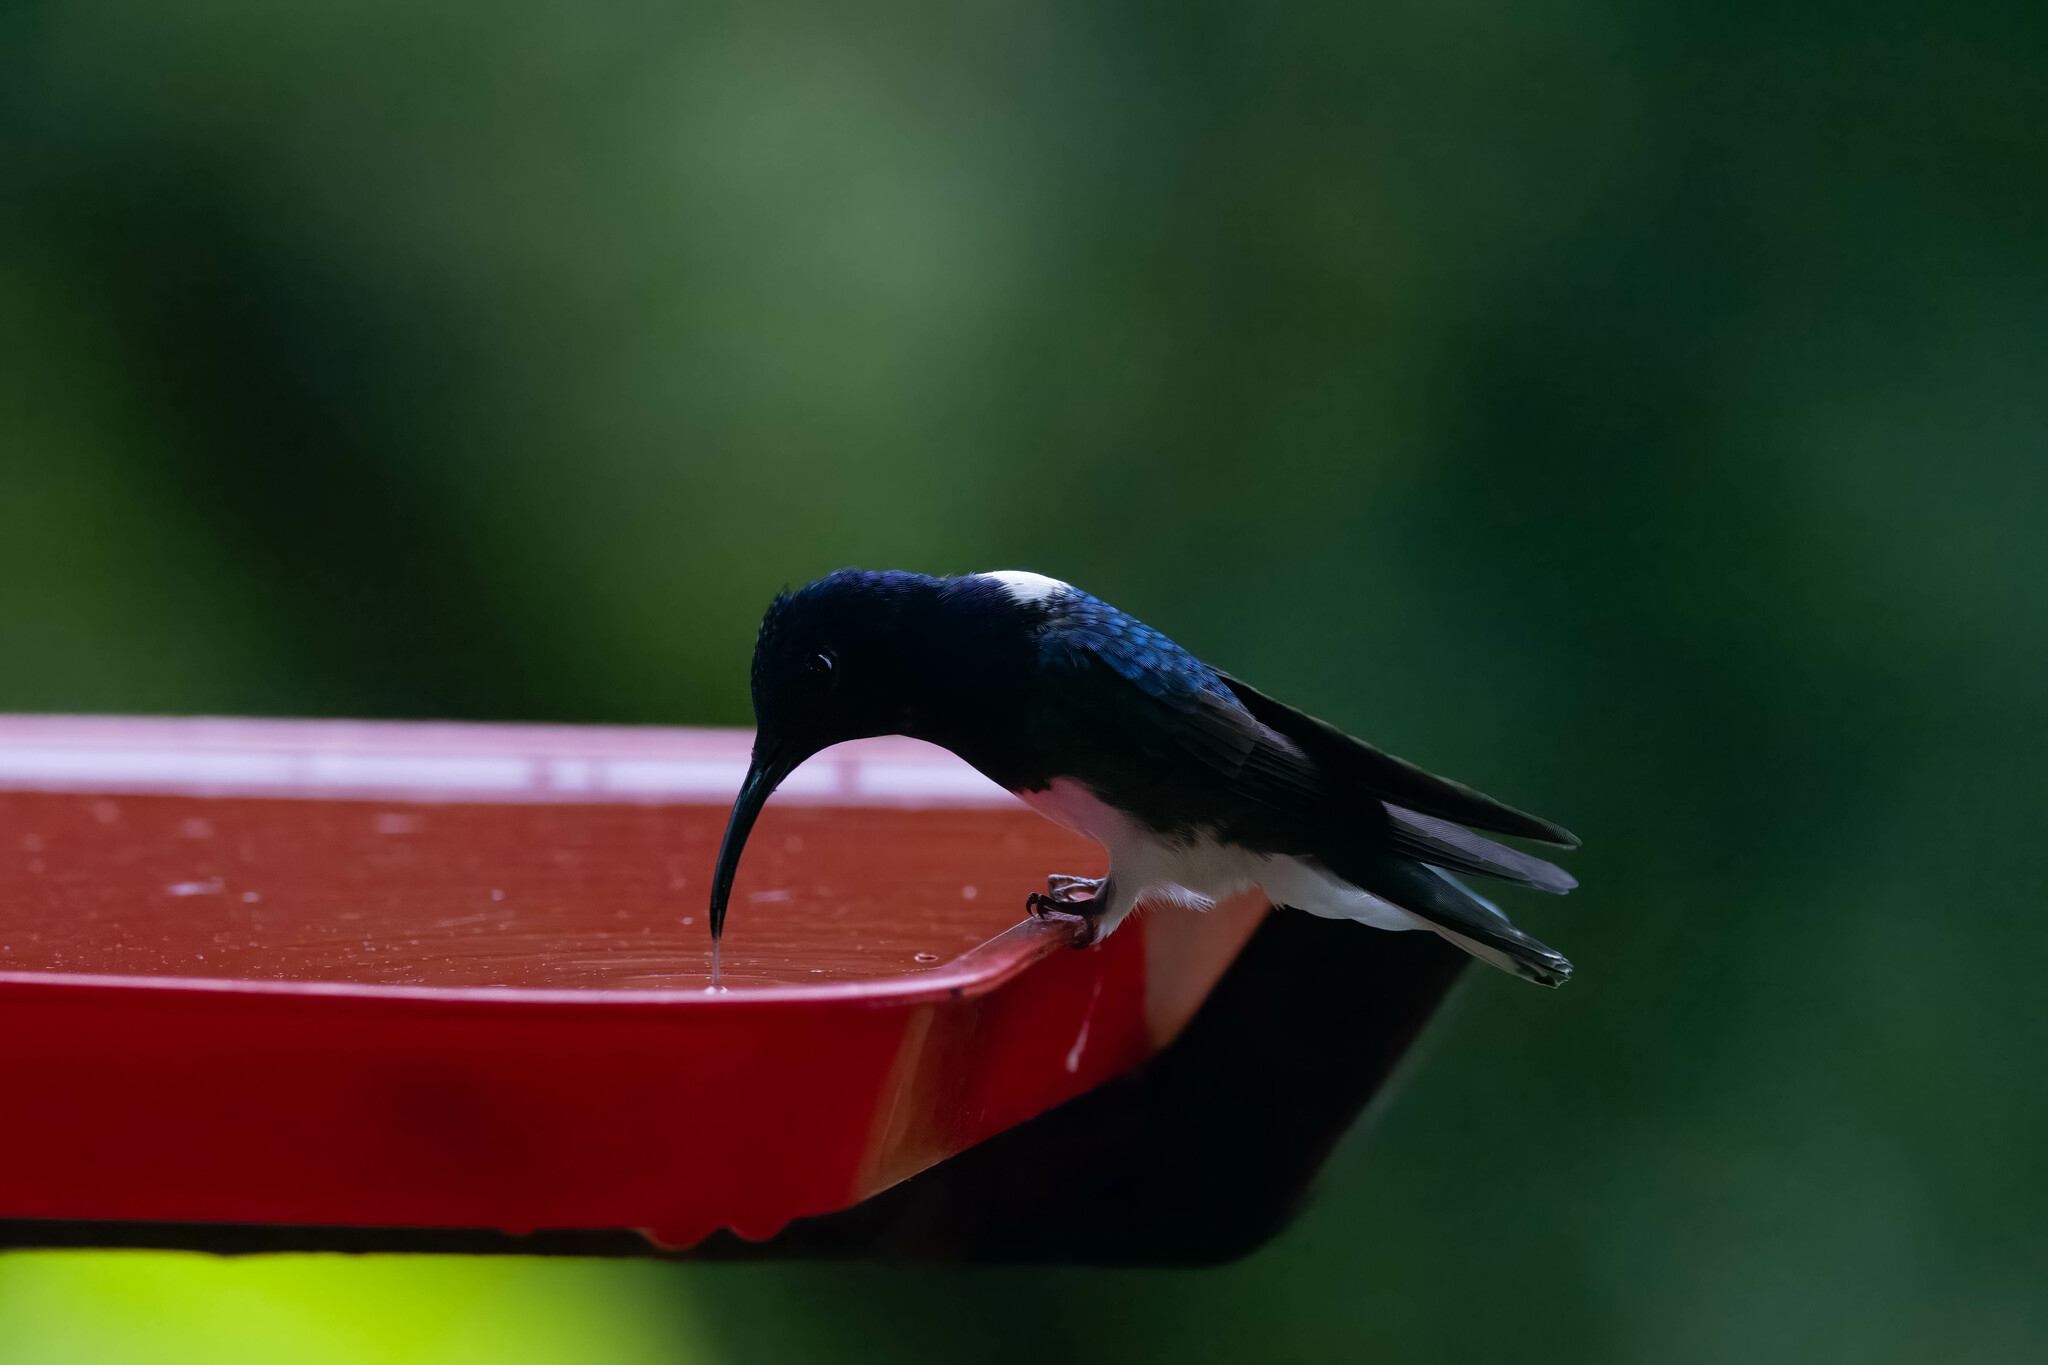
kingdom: Animalia
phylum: Chordata
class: Aves
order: Apodiformes
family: Trochilidae
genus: Florisuga
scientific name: Florisuga mellivora
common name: White-necked jacobin
